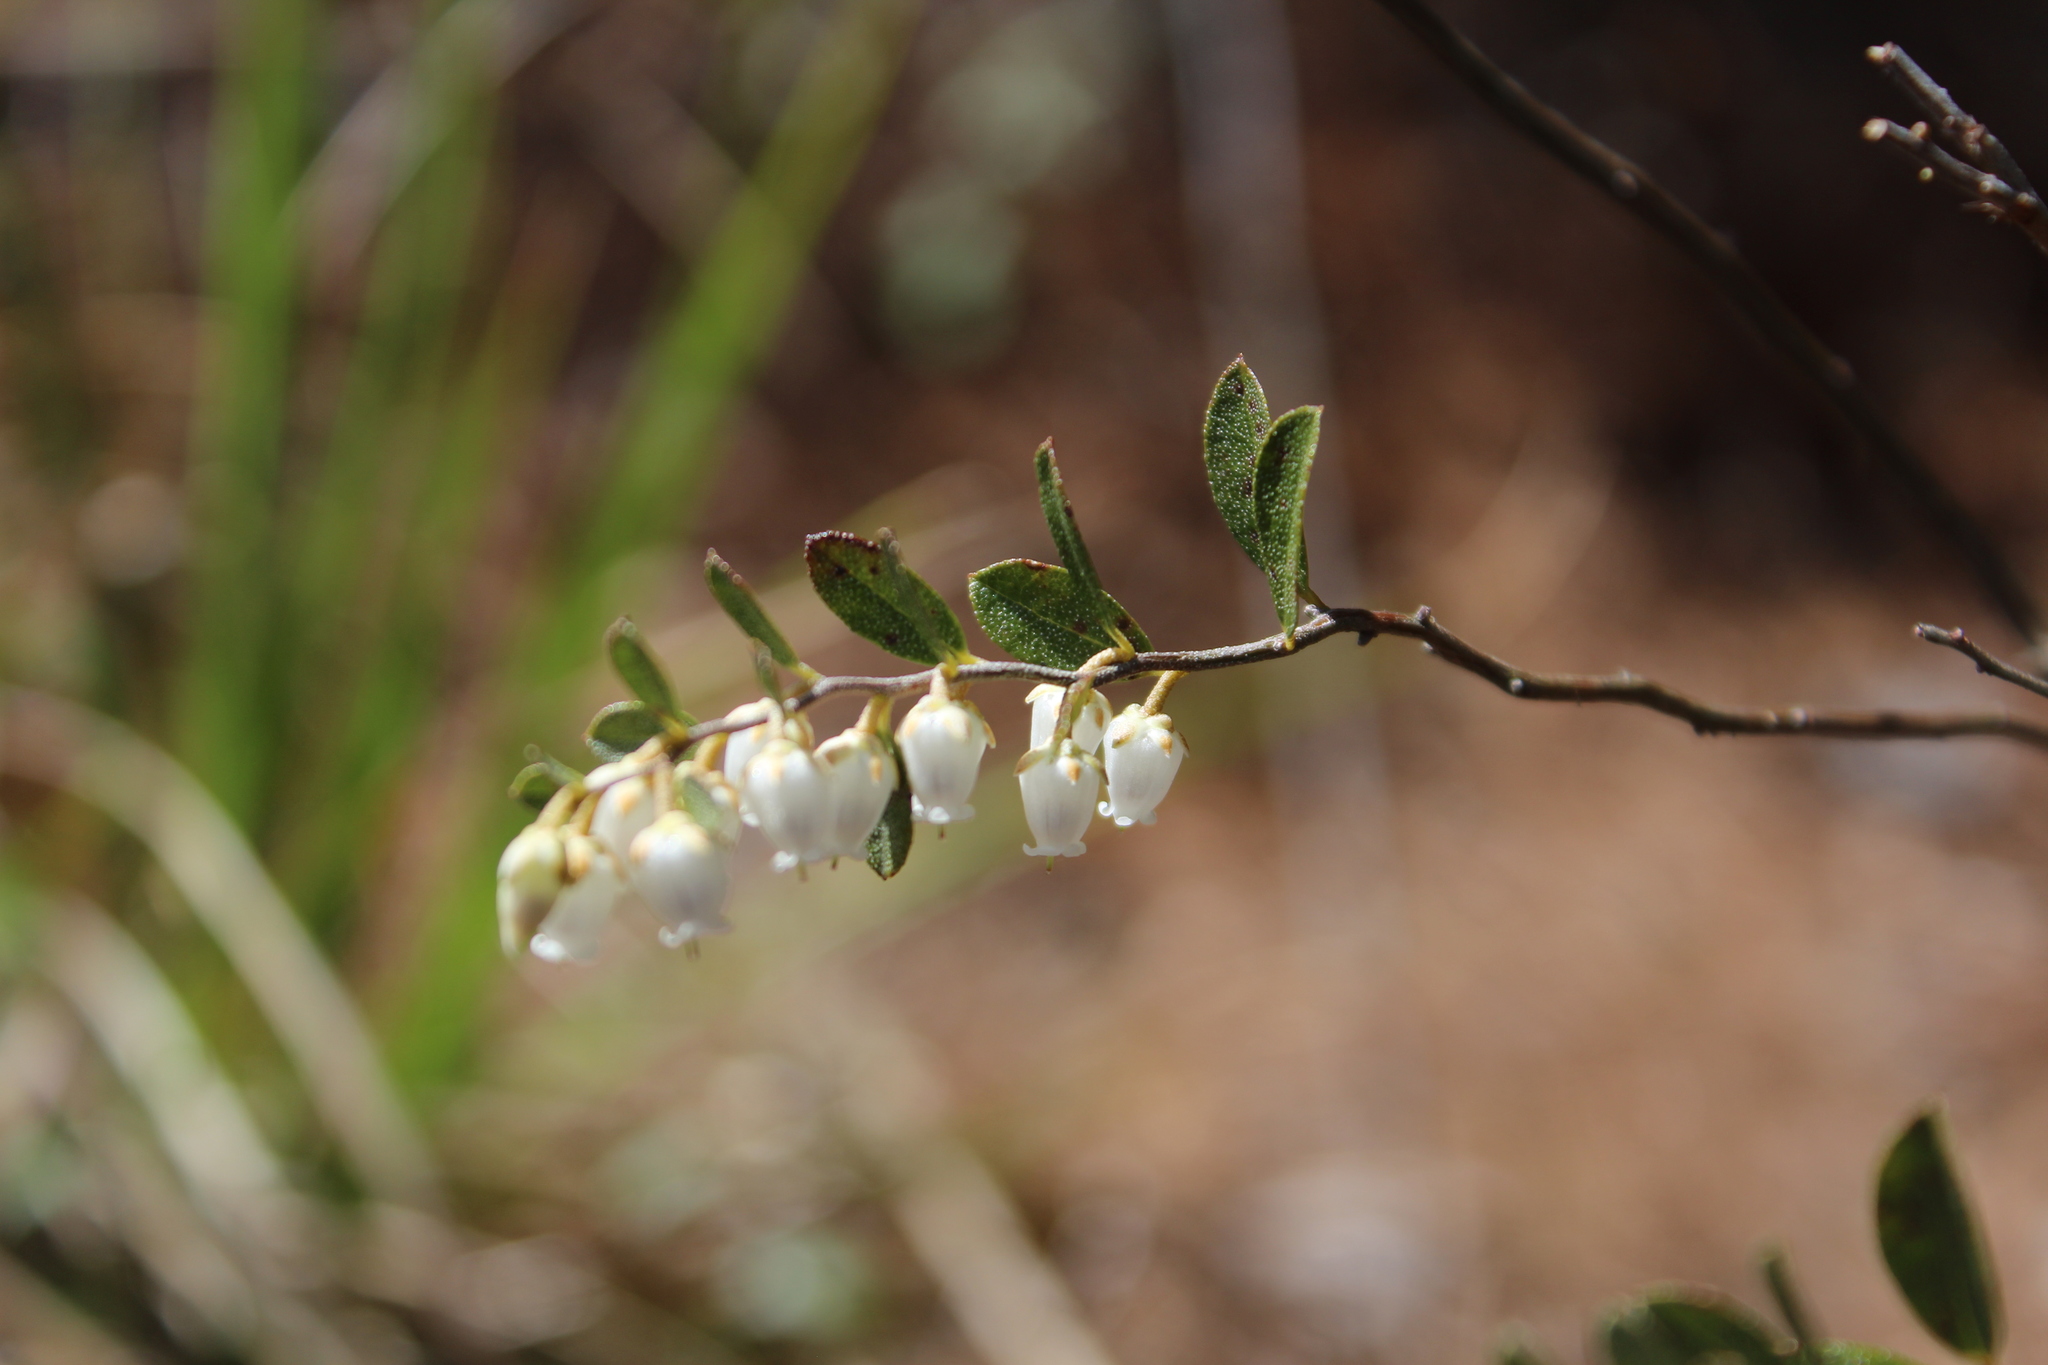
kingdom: Plantae
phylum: Tracheophyta
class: Magnoliopsida
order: Ericales
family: Ericaceae
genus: Chamaedaphne
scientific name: Chamaedaphne calyculata
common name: Leatherleaf
